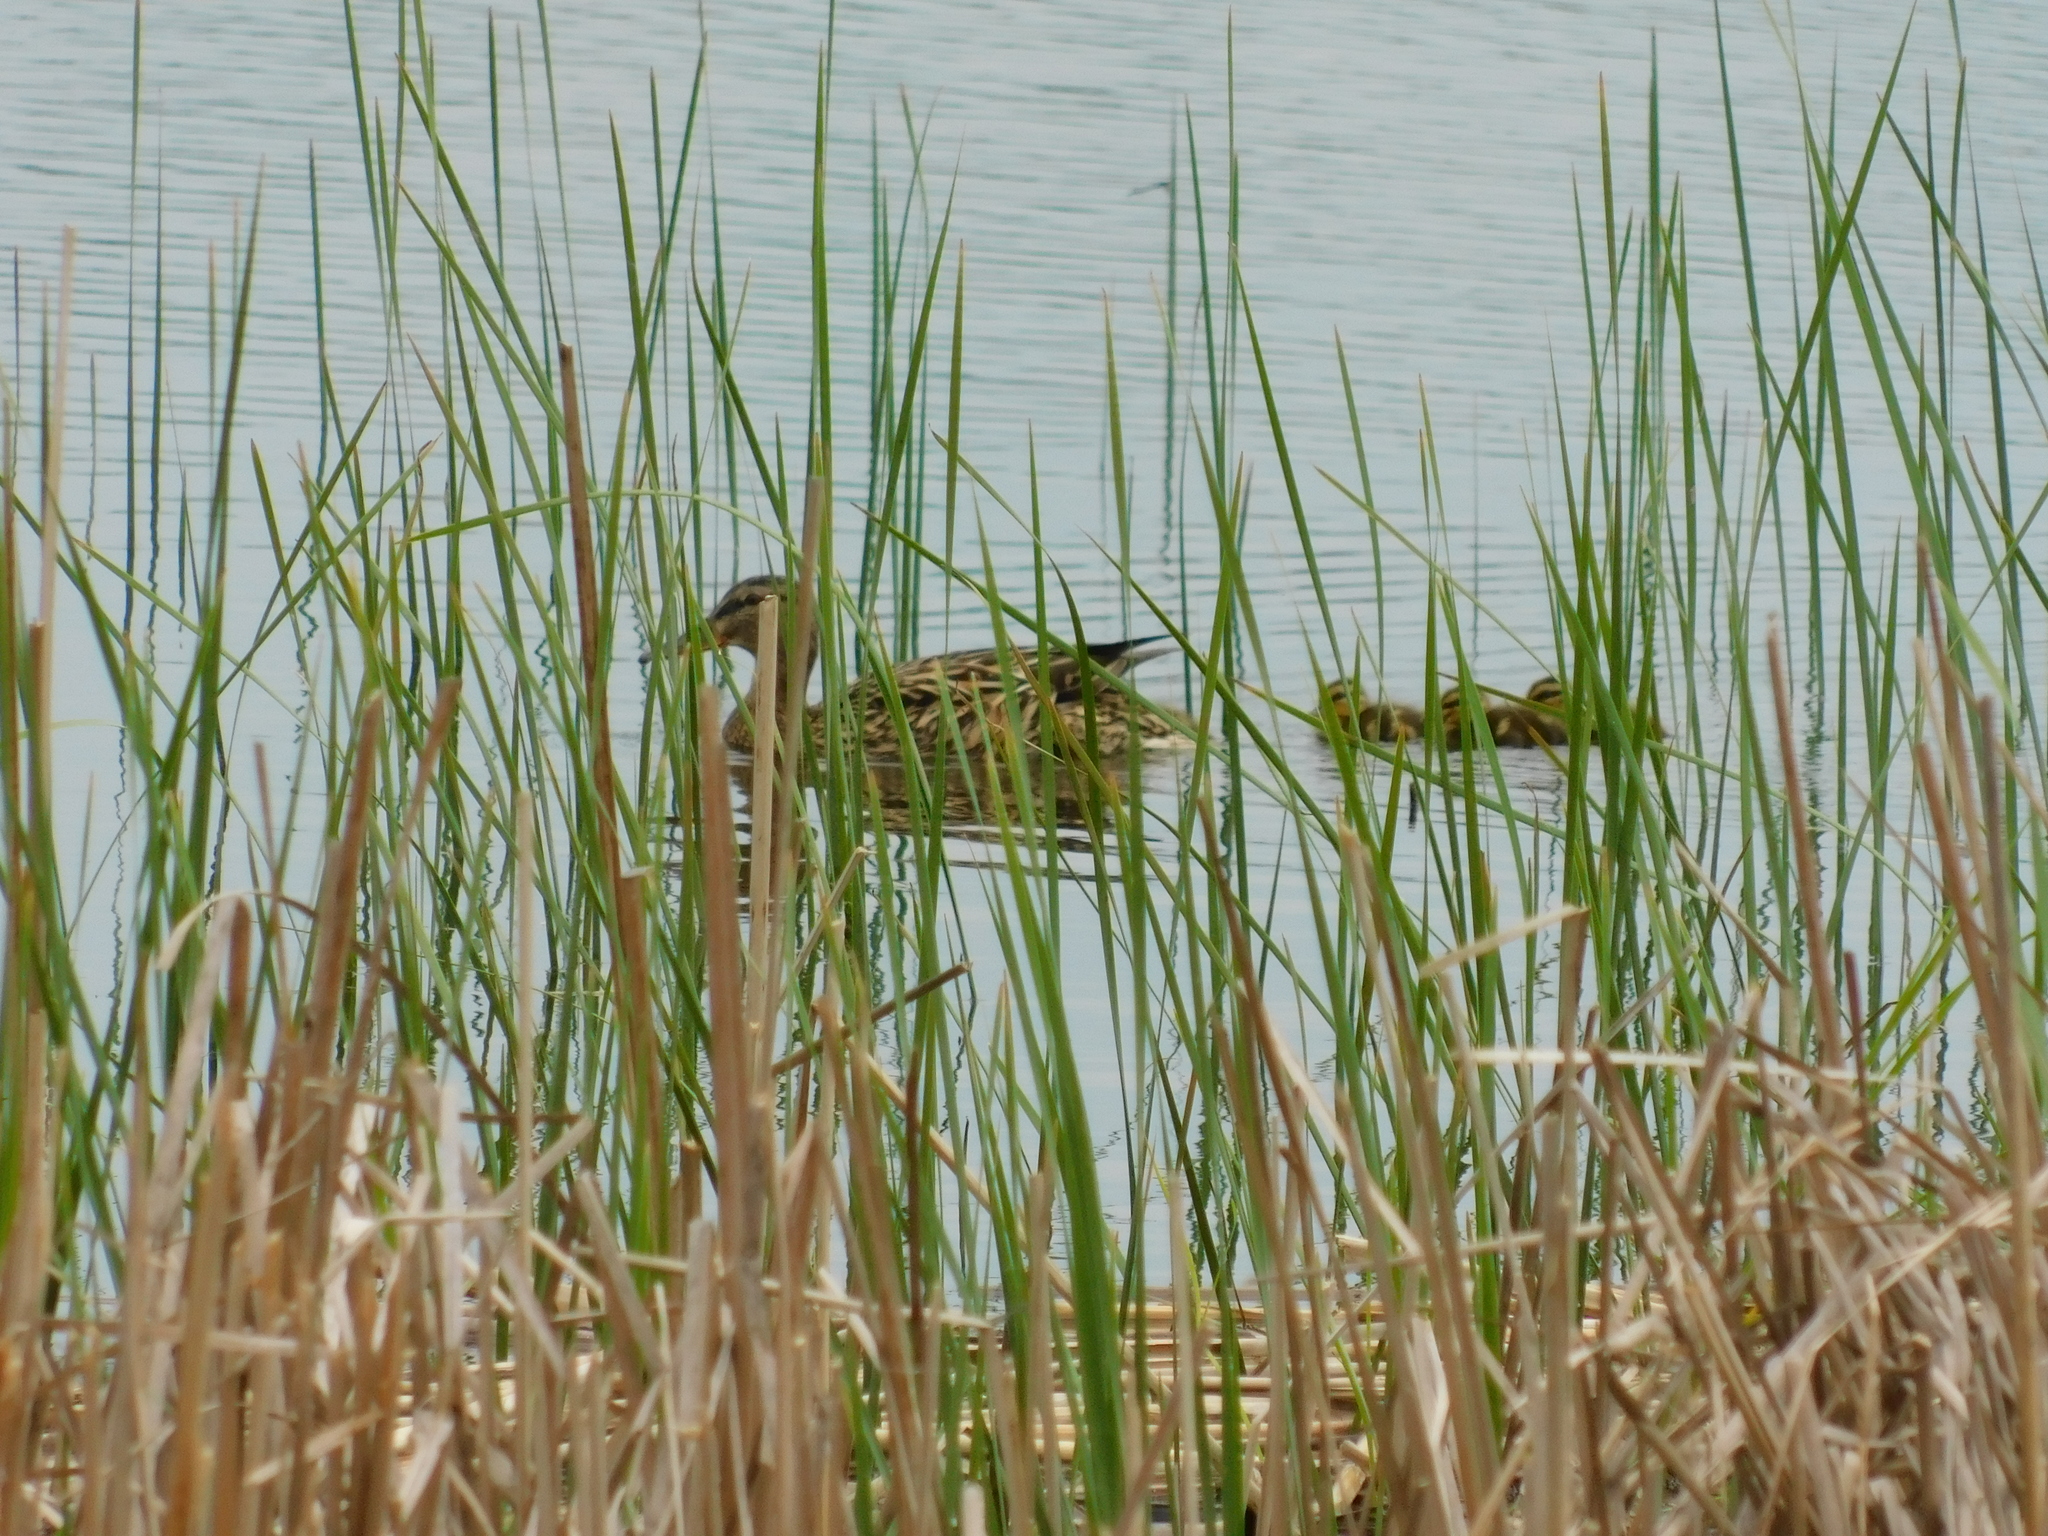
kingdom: Animalia
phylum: Chordata
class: Aves
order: Anseriformes
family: Anatidae
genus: Anas
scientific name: Anas platyrhynchos
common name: Mallard
